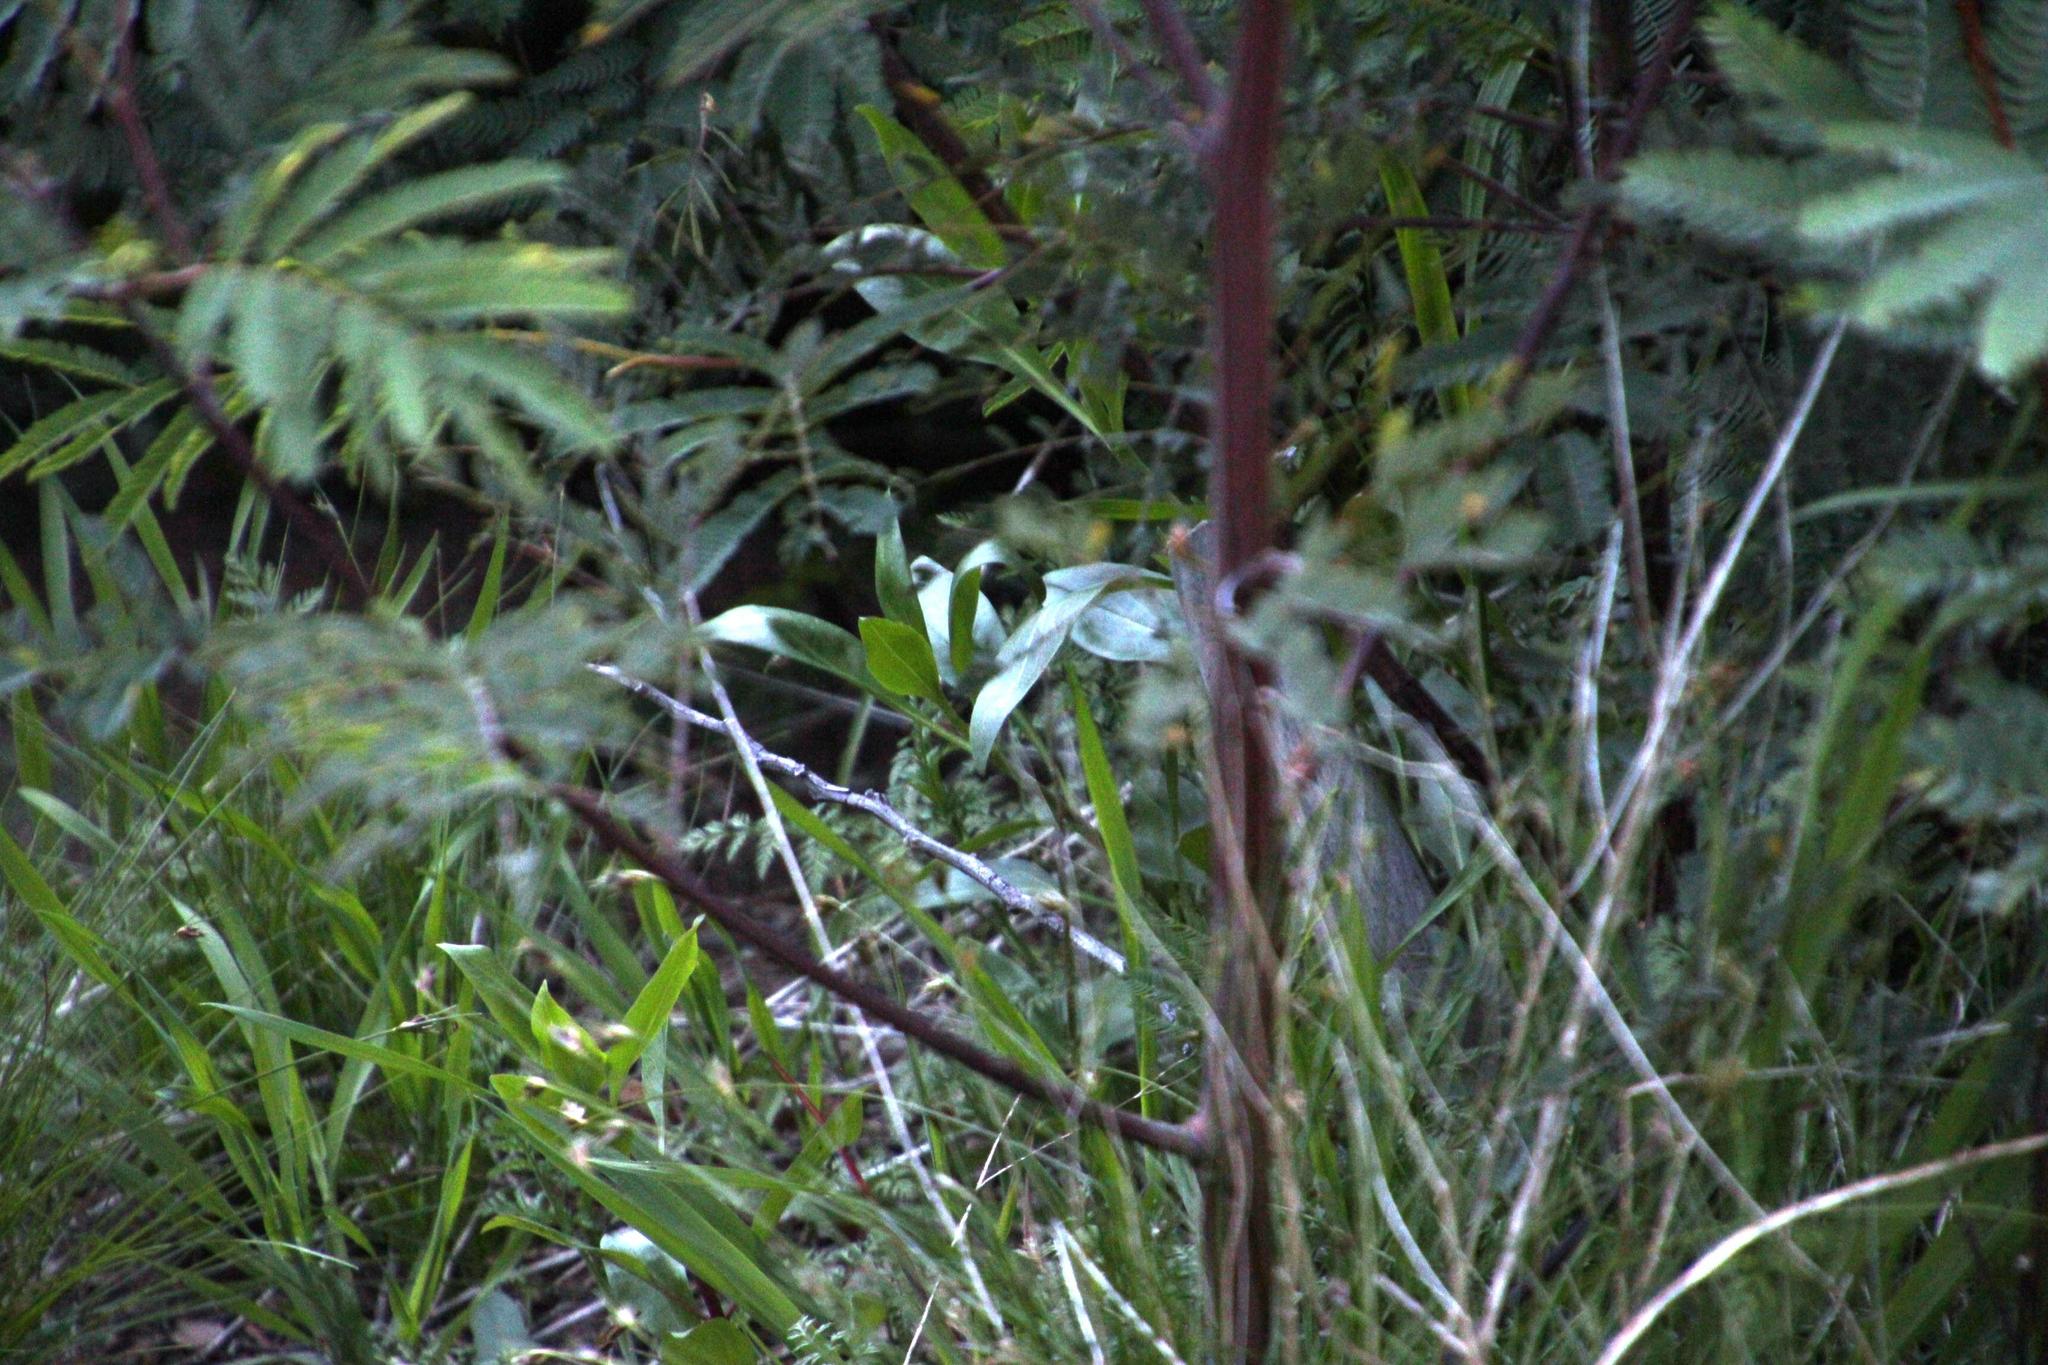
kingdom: Plantae
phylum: Tracheophyta
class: Magnoliopsida
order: Dipsacales
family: Caprifoliaceae
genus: Centranthus
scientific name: Centranthus ruber
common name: Red valerian
